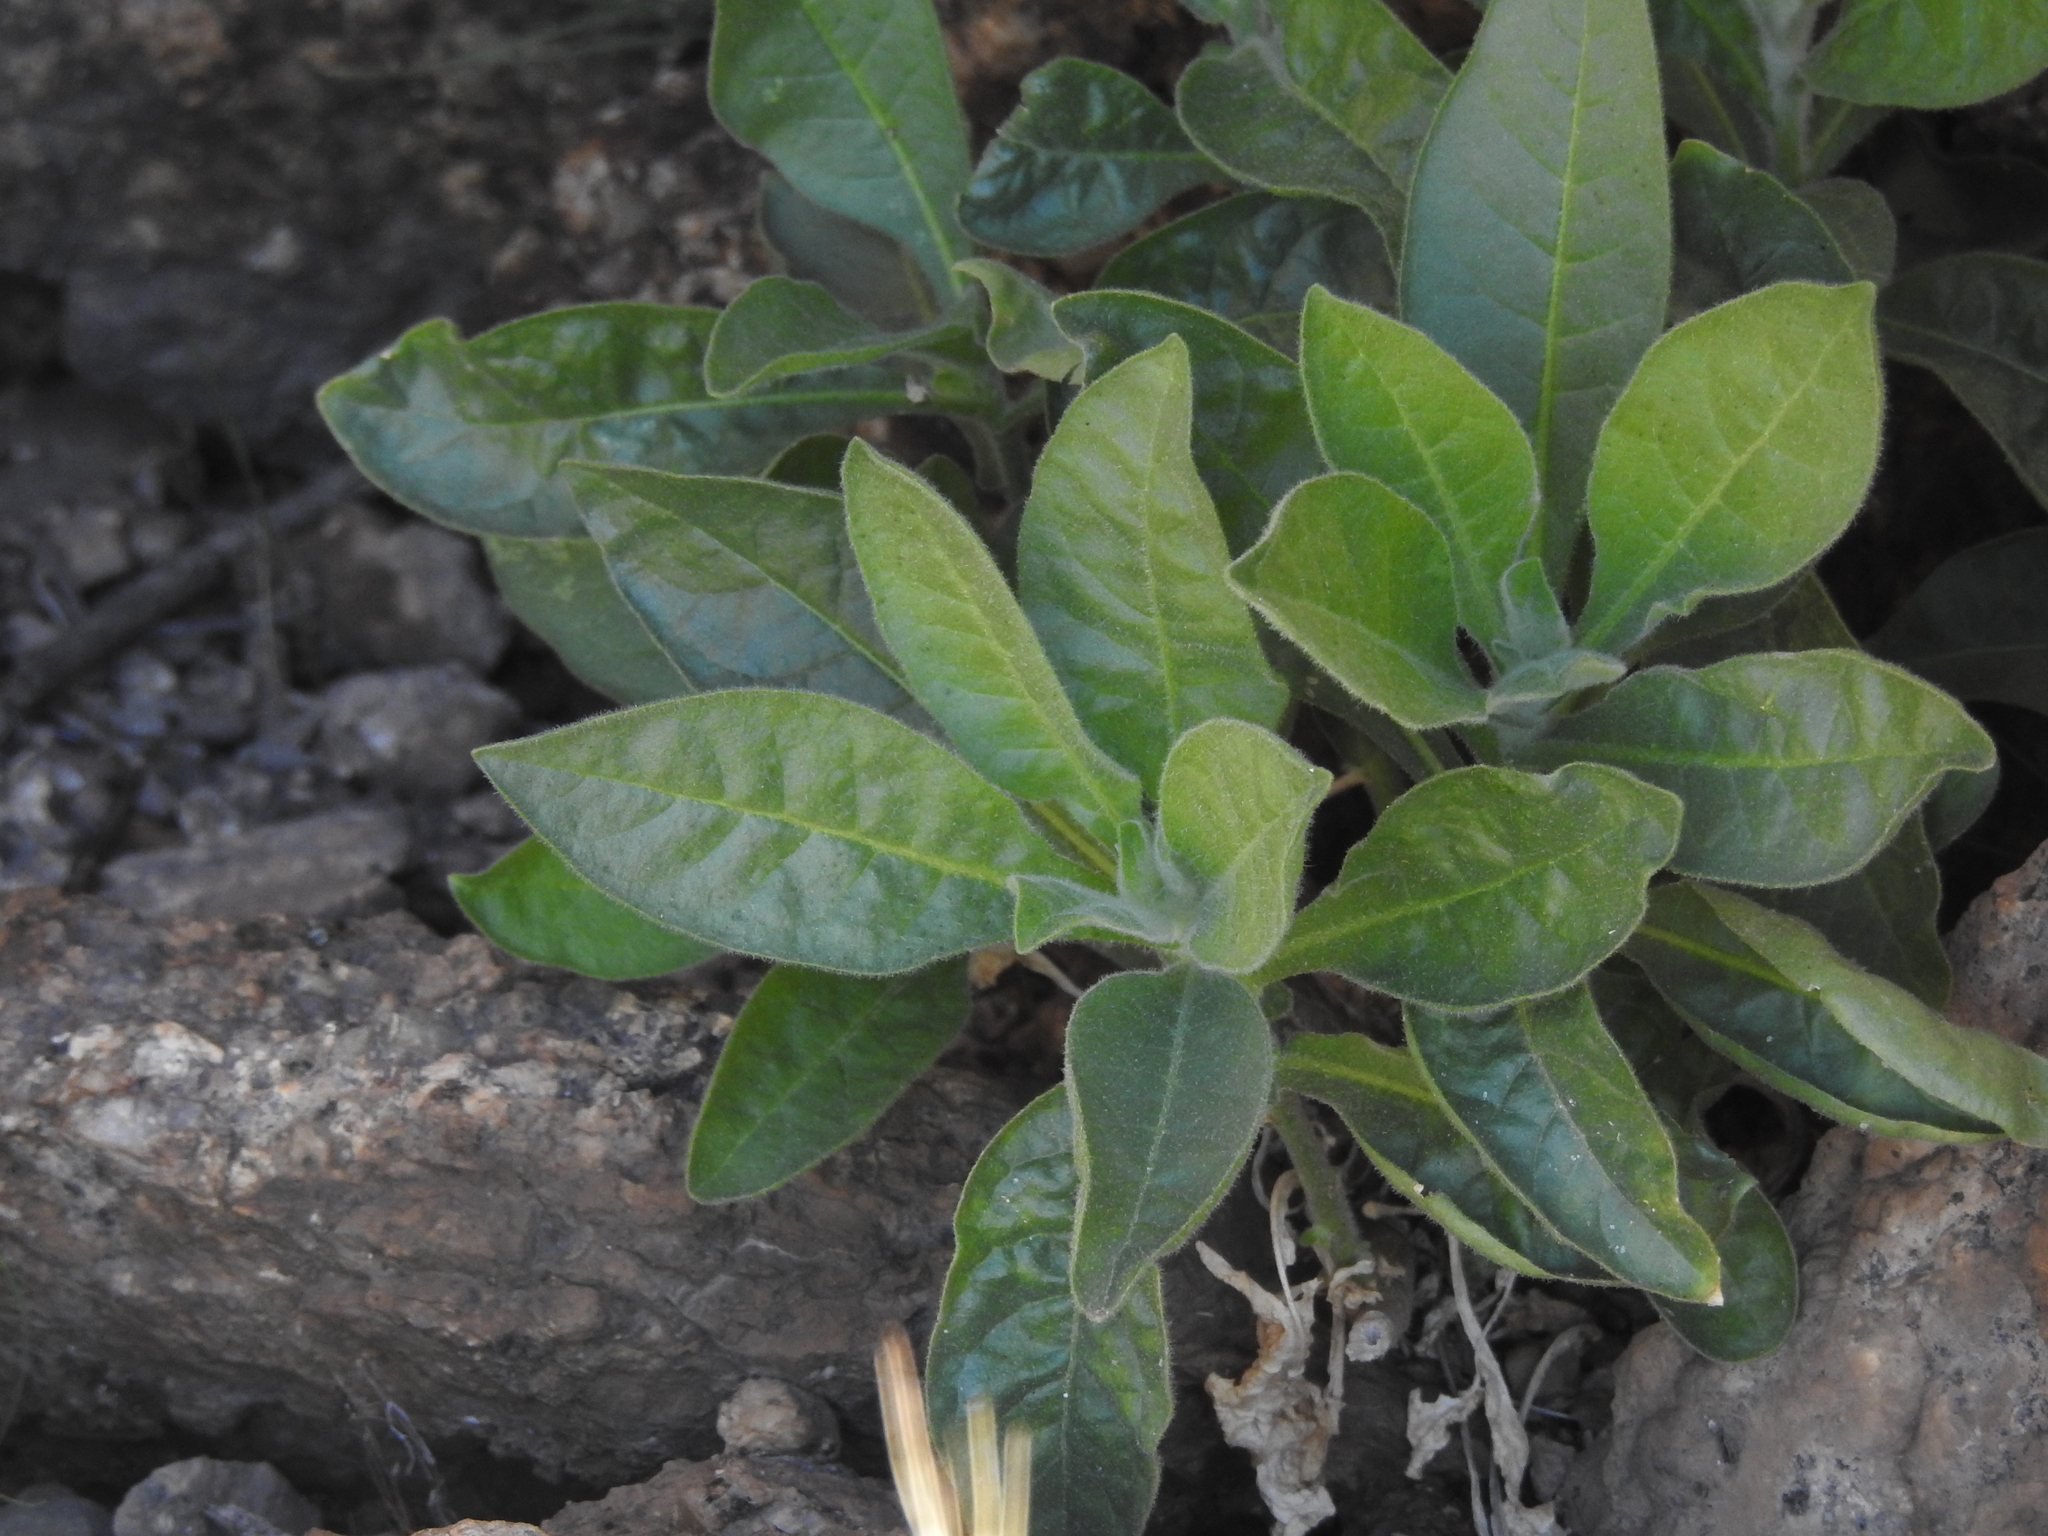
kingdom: Plantae
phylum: Tracheophyta
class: Magnoliopsida
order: Solanales
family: Solanaceae
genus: Nicotiana
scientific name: Nicotiana obtusifolia
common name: Desert tobacco
